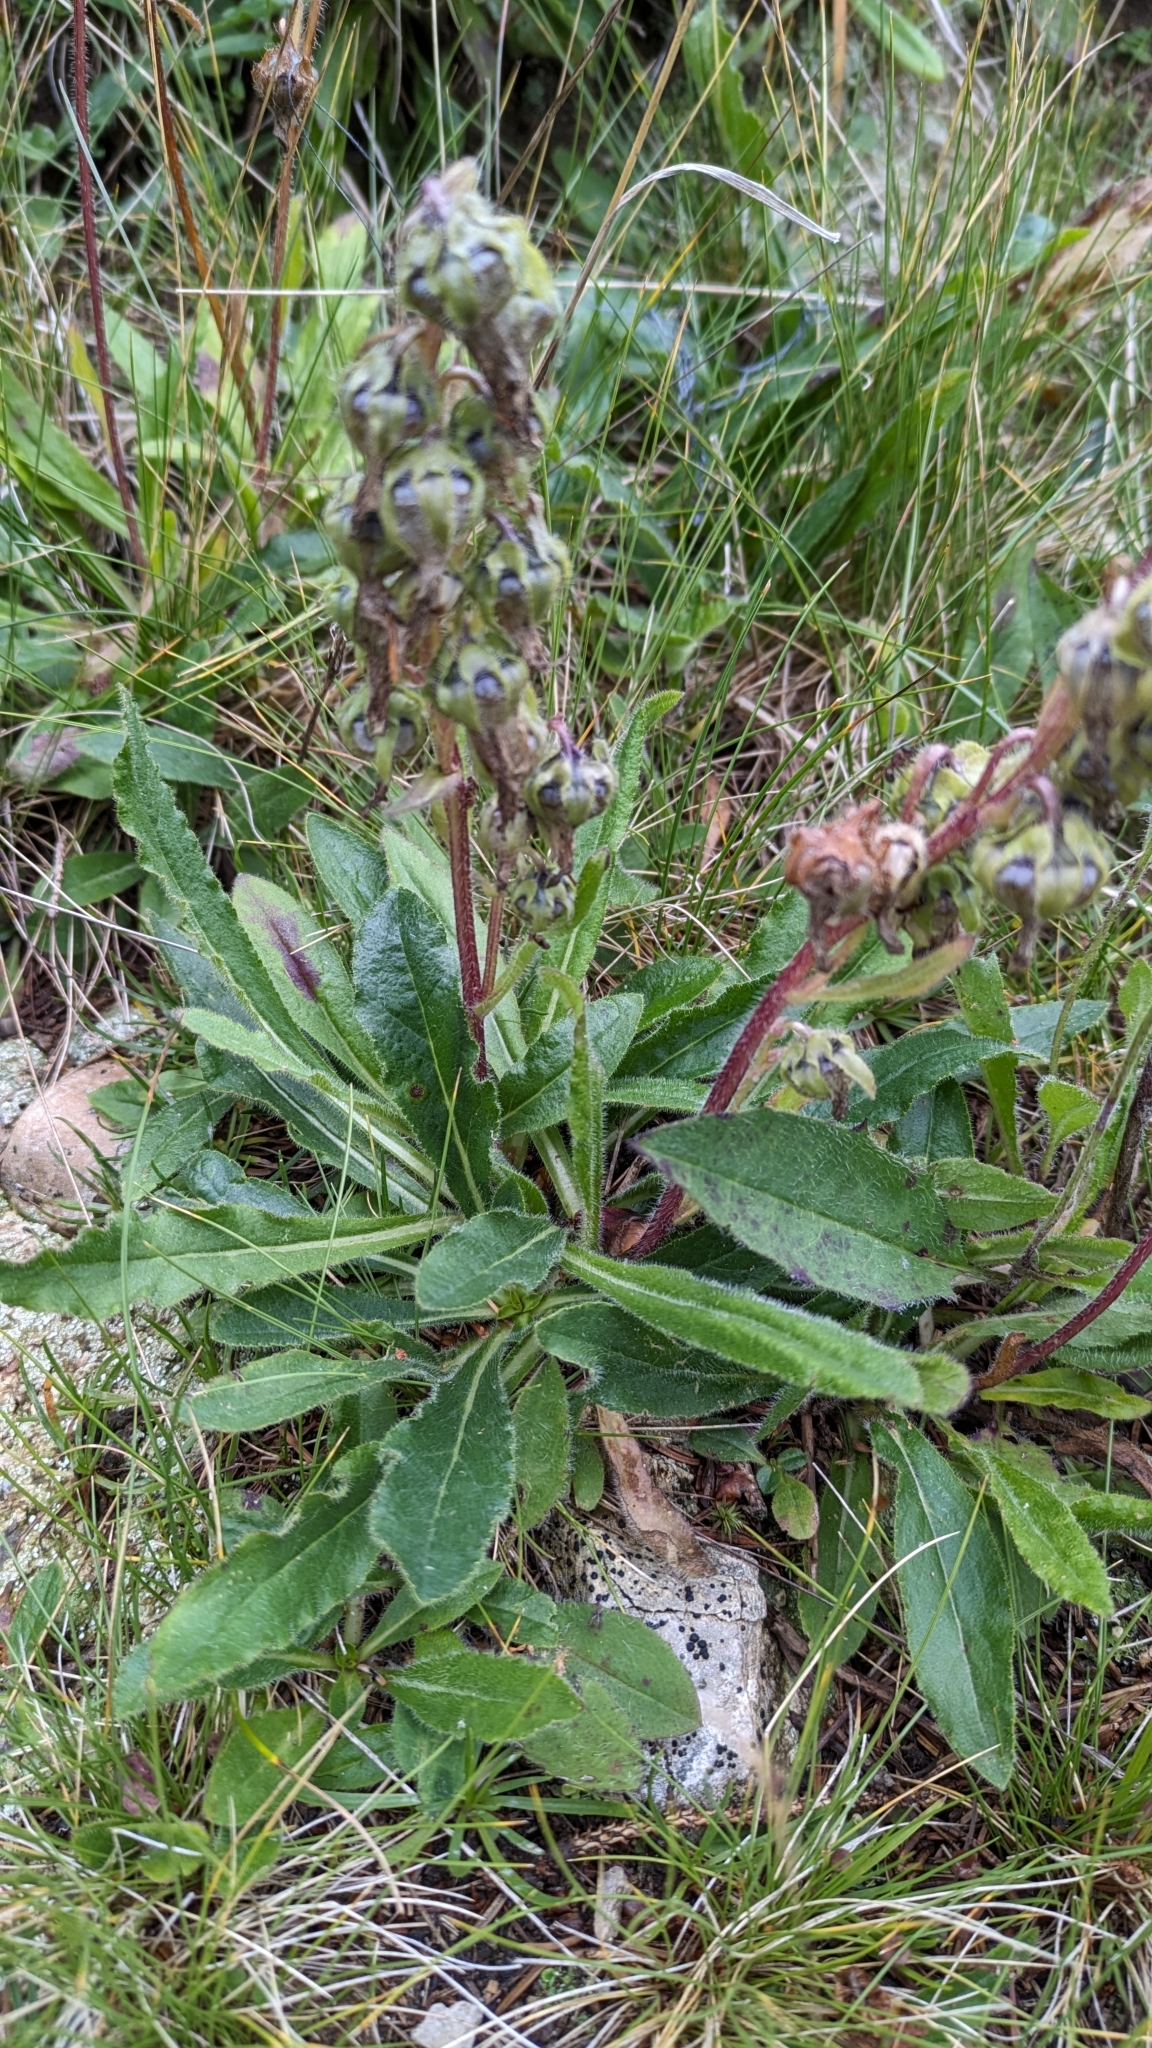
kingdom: Plantae
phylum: Tracheophyta
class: Magnoliopsida
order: Asterales
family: Campanulaceae
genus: Campanula
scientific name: Campanula barbata
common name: Bearded bellflower
